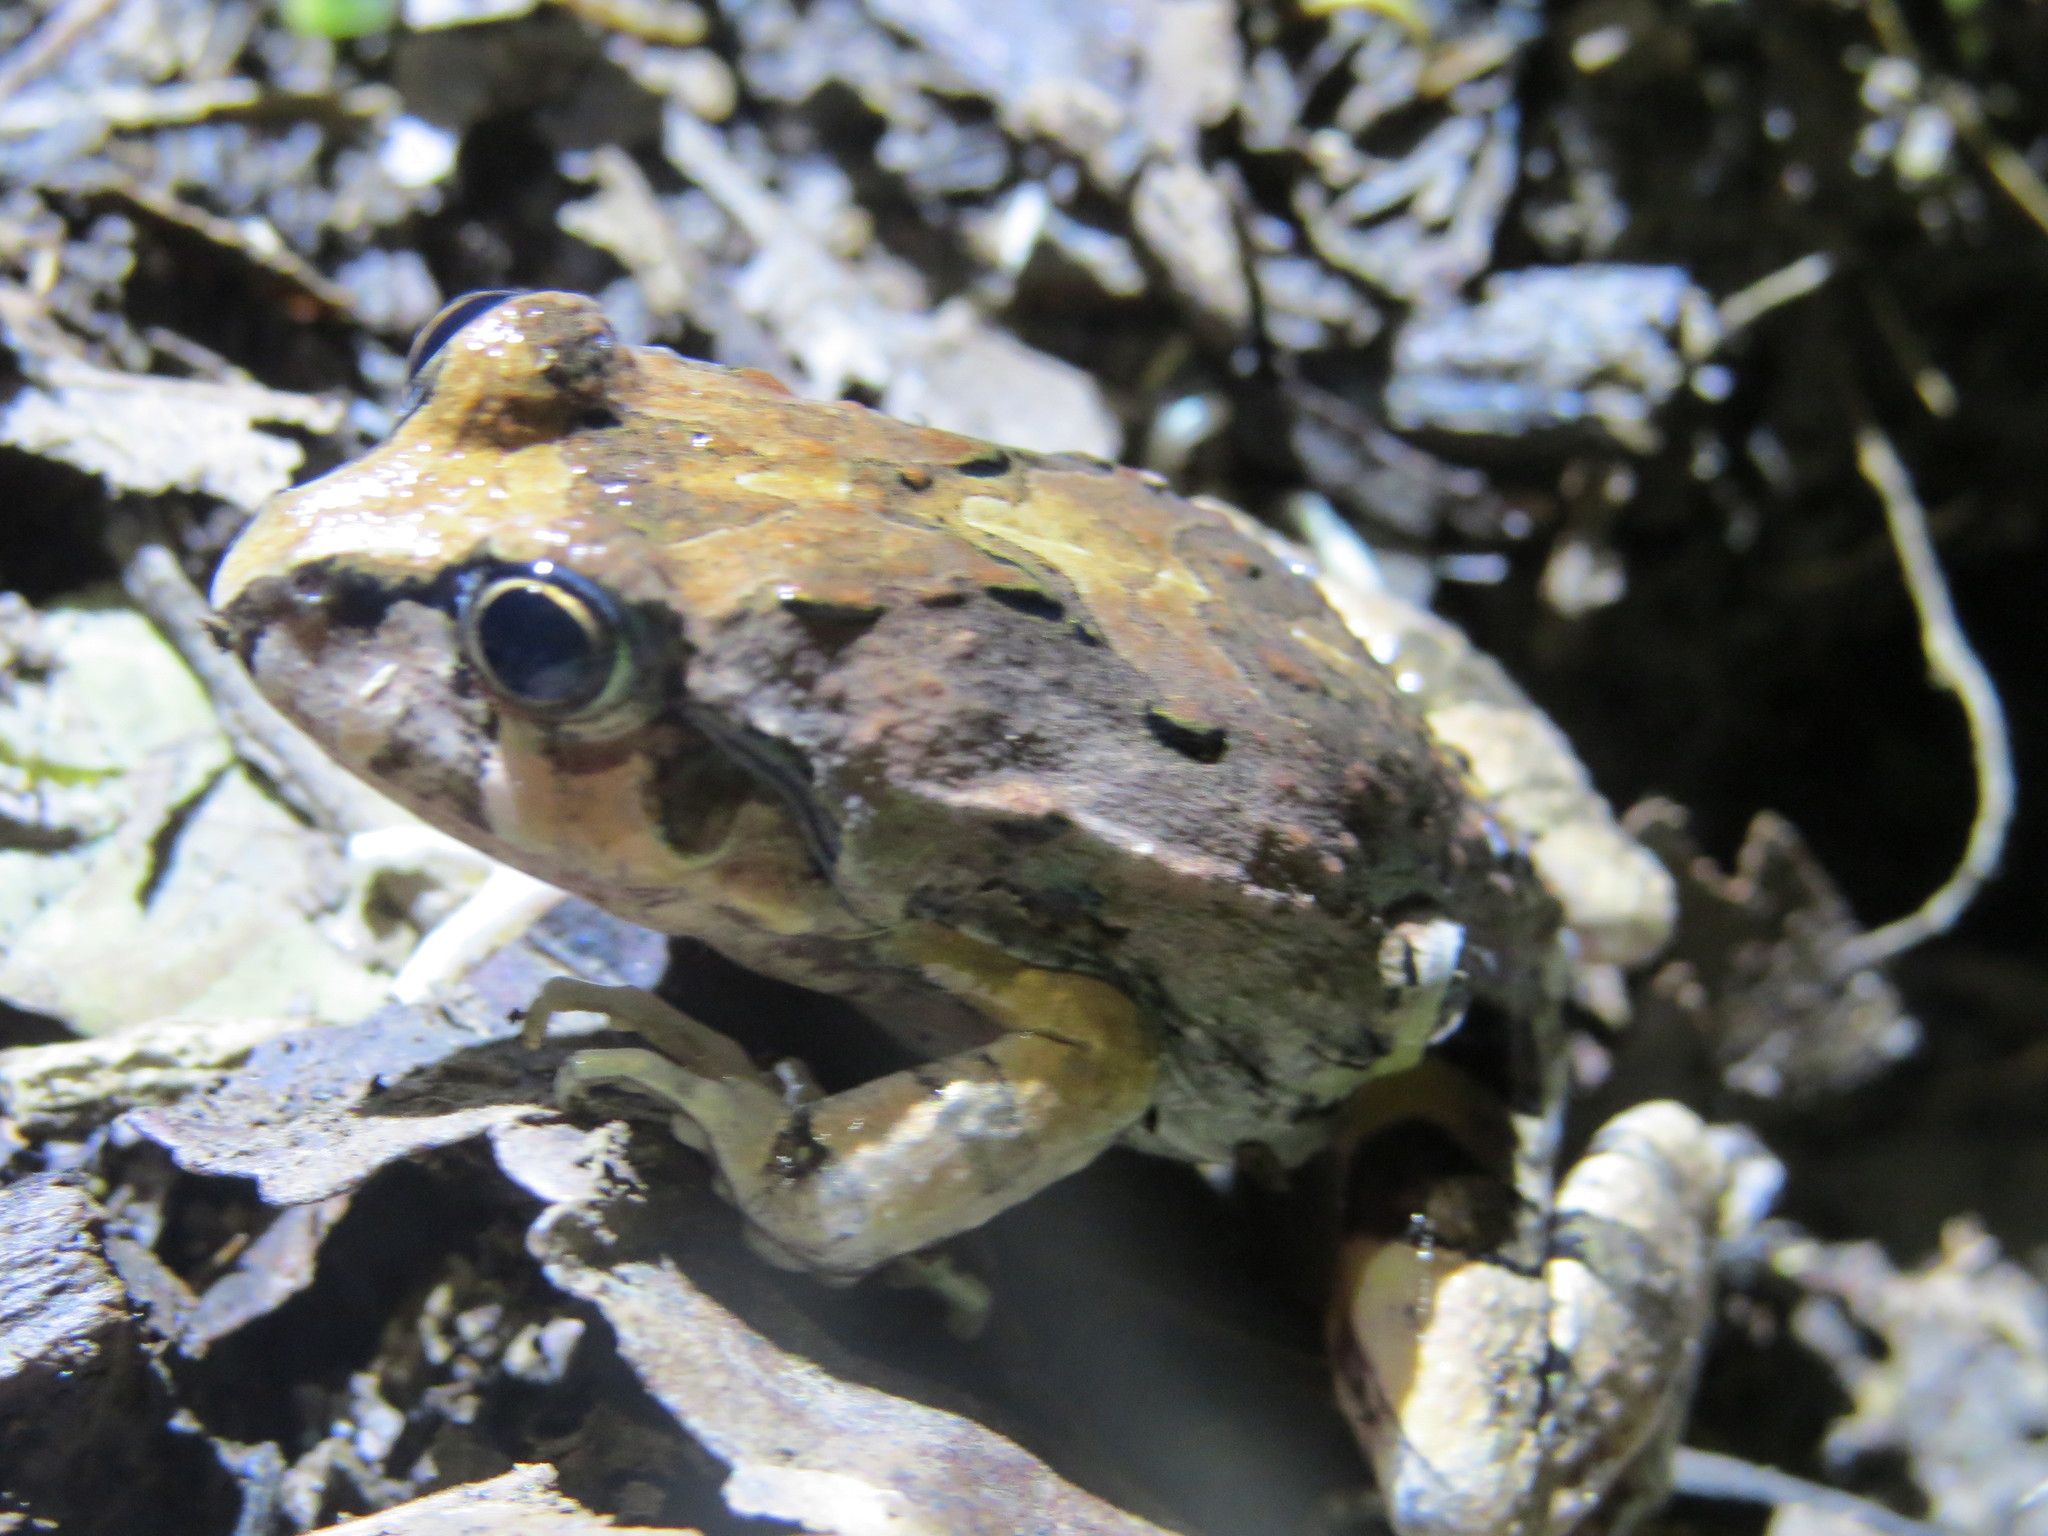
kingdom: Animalia
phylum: Chordata
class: Amphibia
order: Anura
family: Leptodactylidae
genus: Pleurodema
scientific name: Pleurodema borellii
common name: Rufous four-eyed frog
